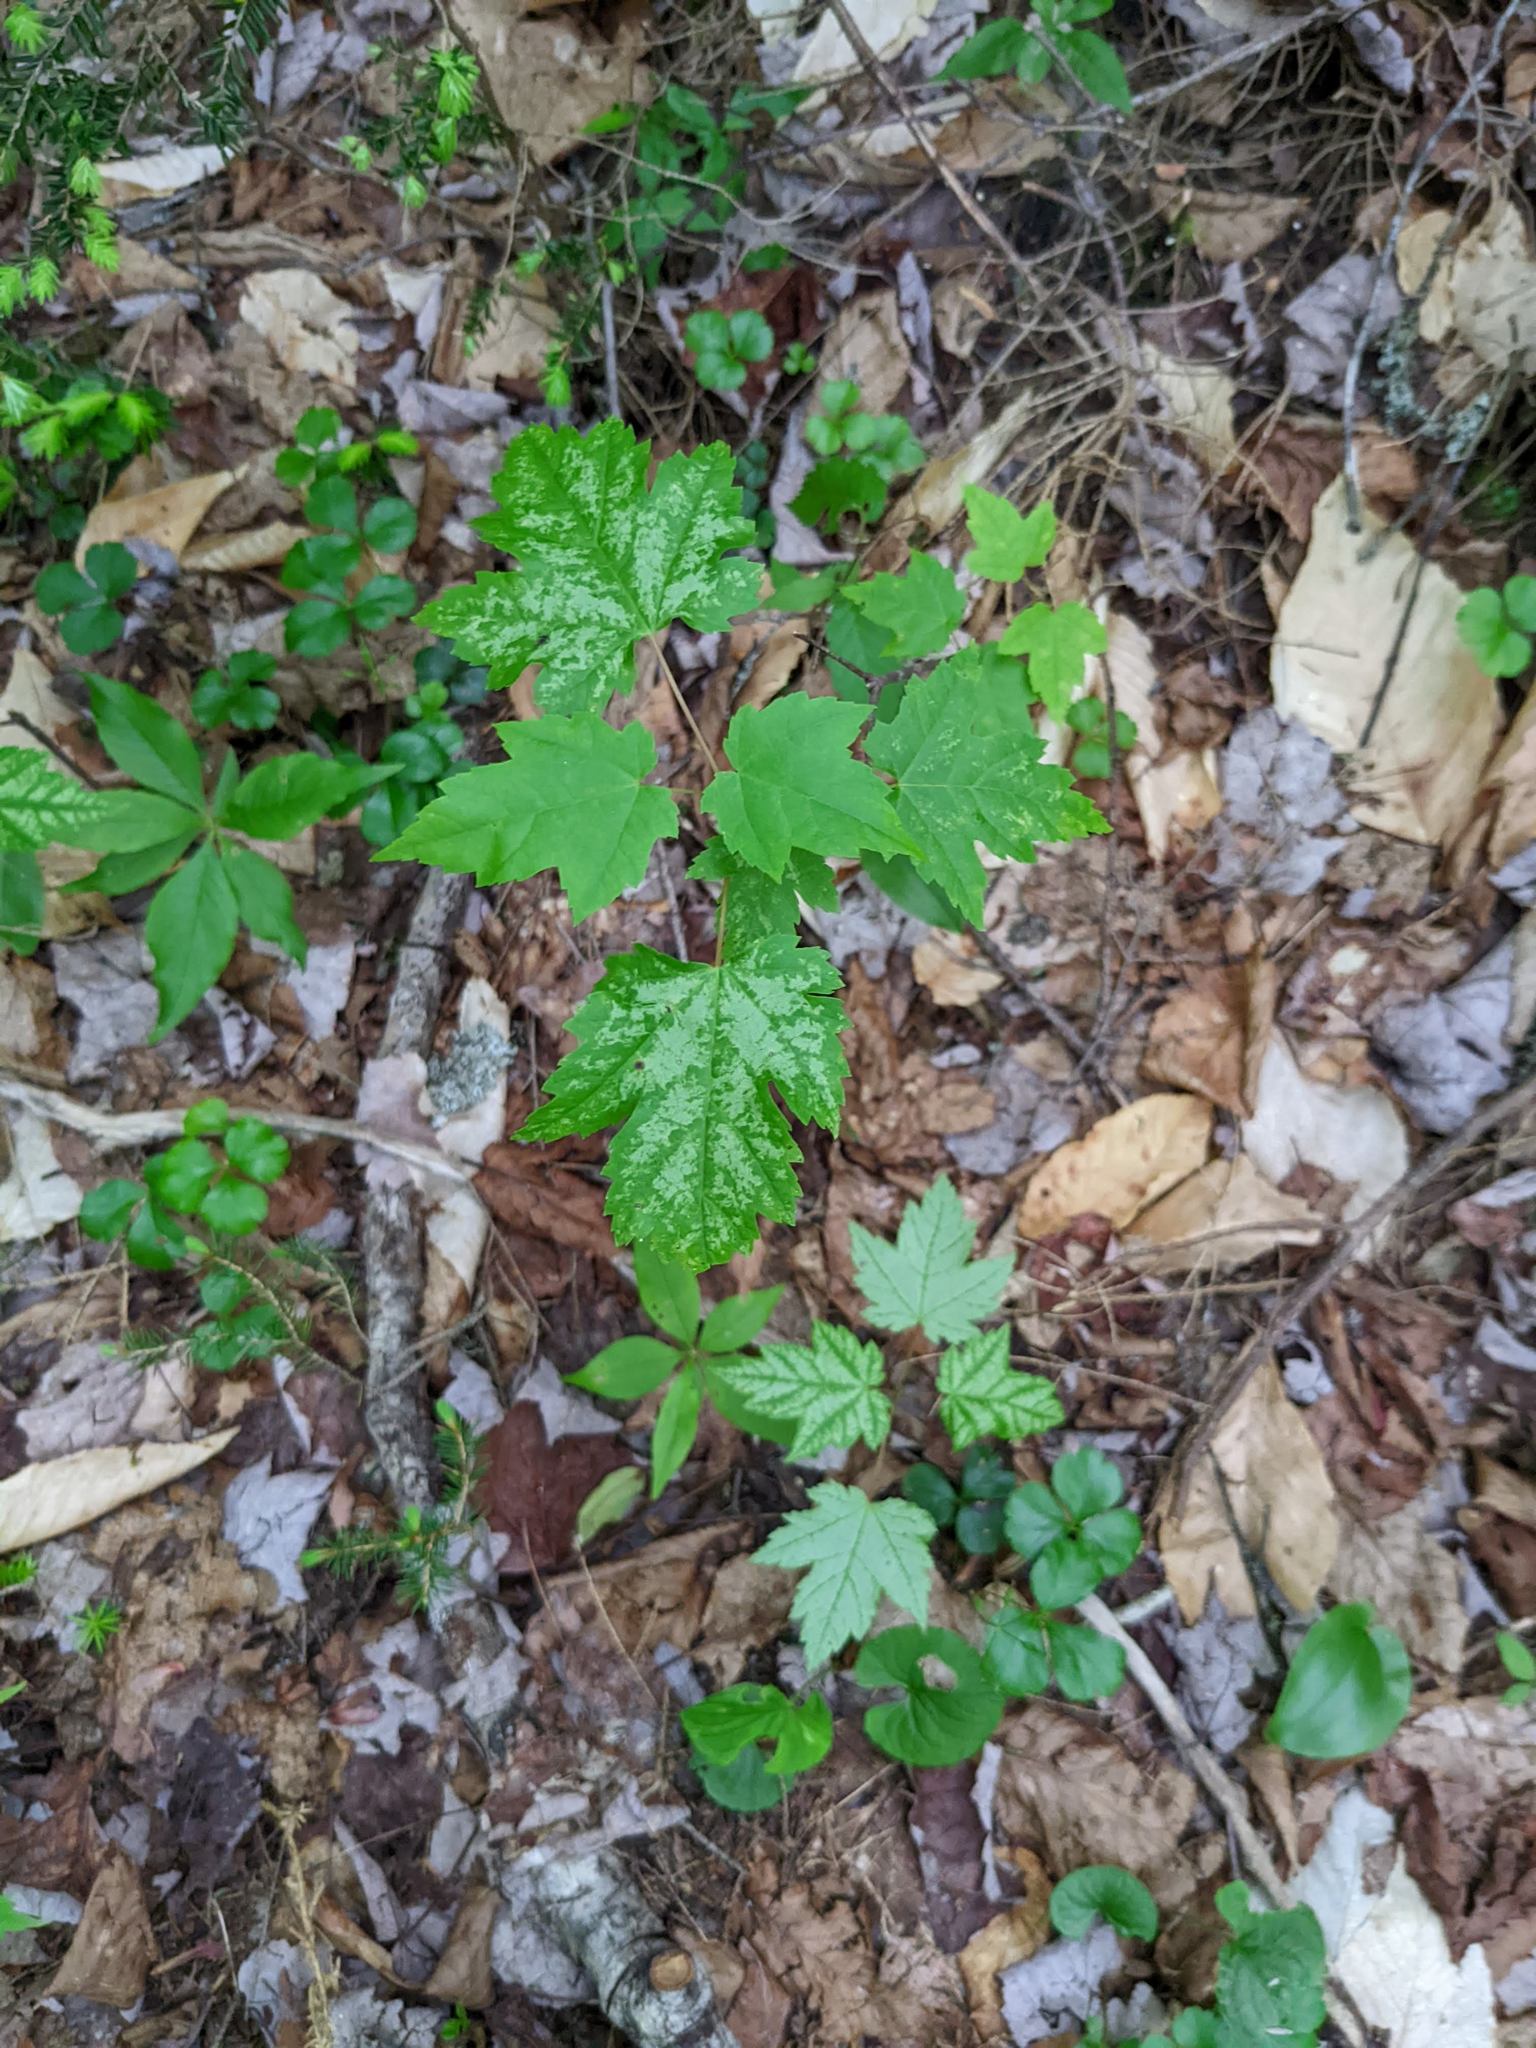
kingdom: Plantae
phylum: Tracheophyta
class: Magnoliopsida
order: Sapindales
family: Sapindaceae
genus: Acer
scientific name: Acer rubrum
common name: Red maple
